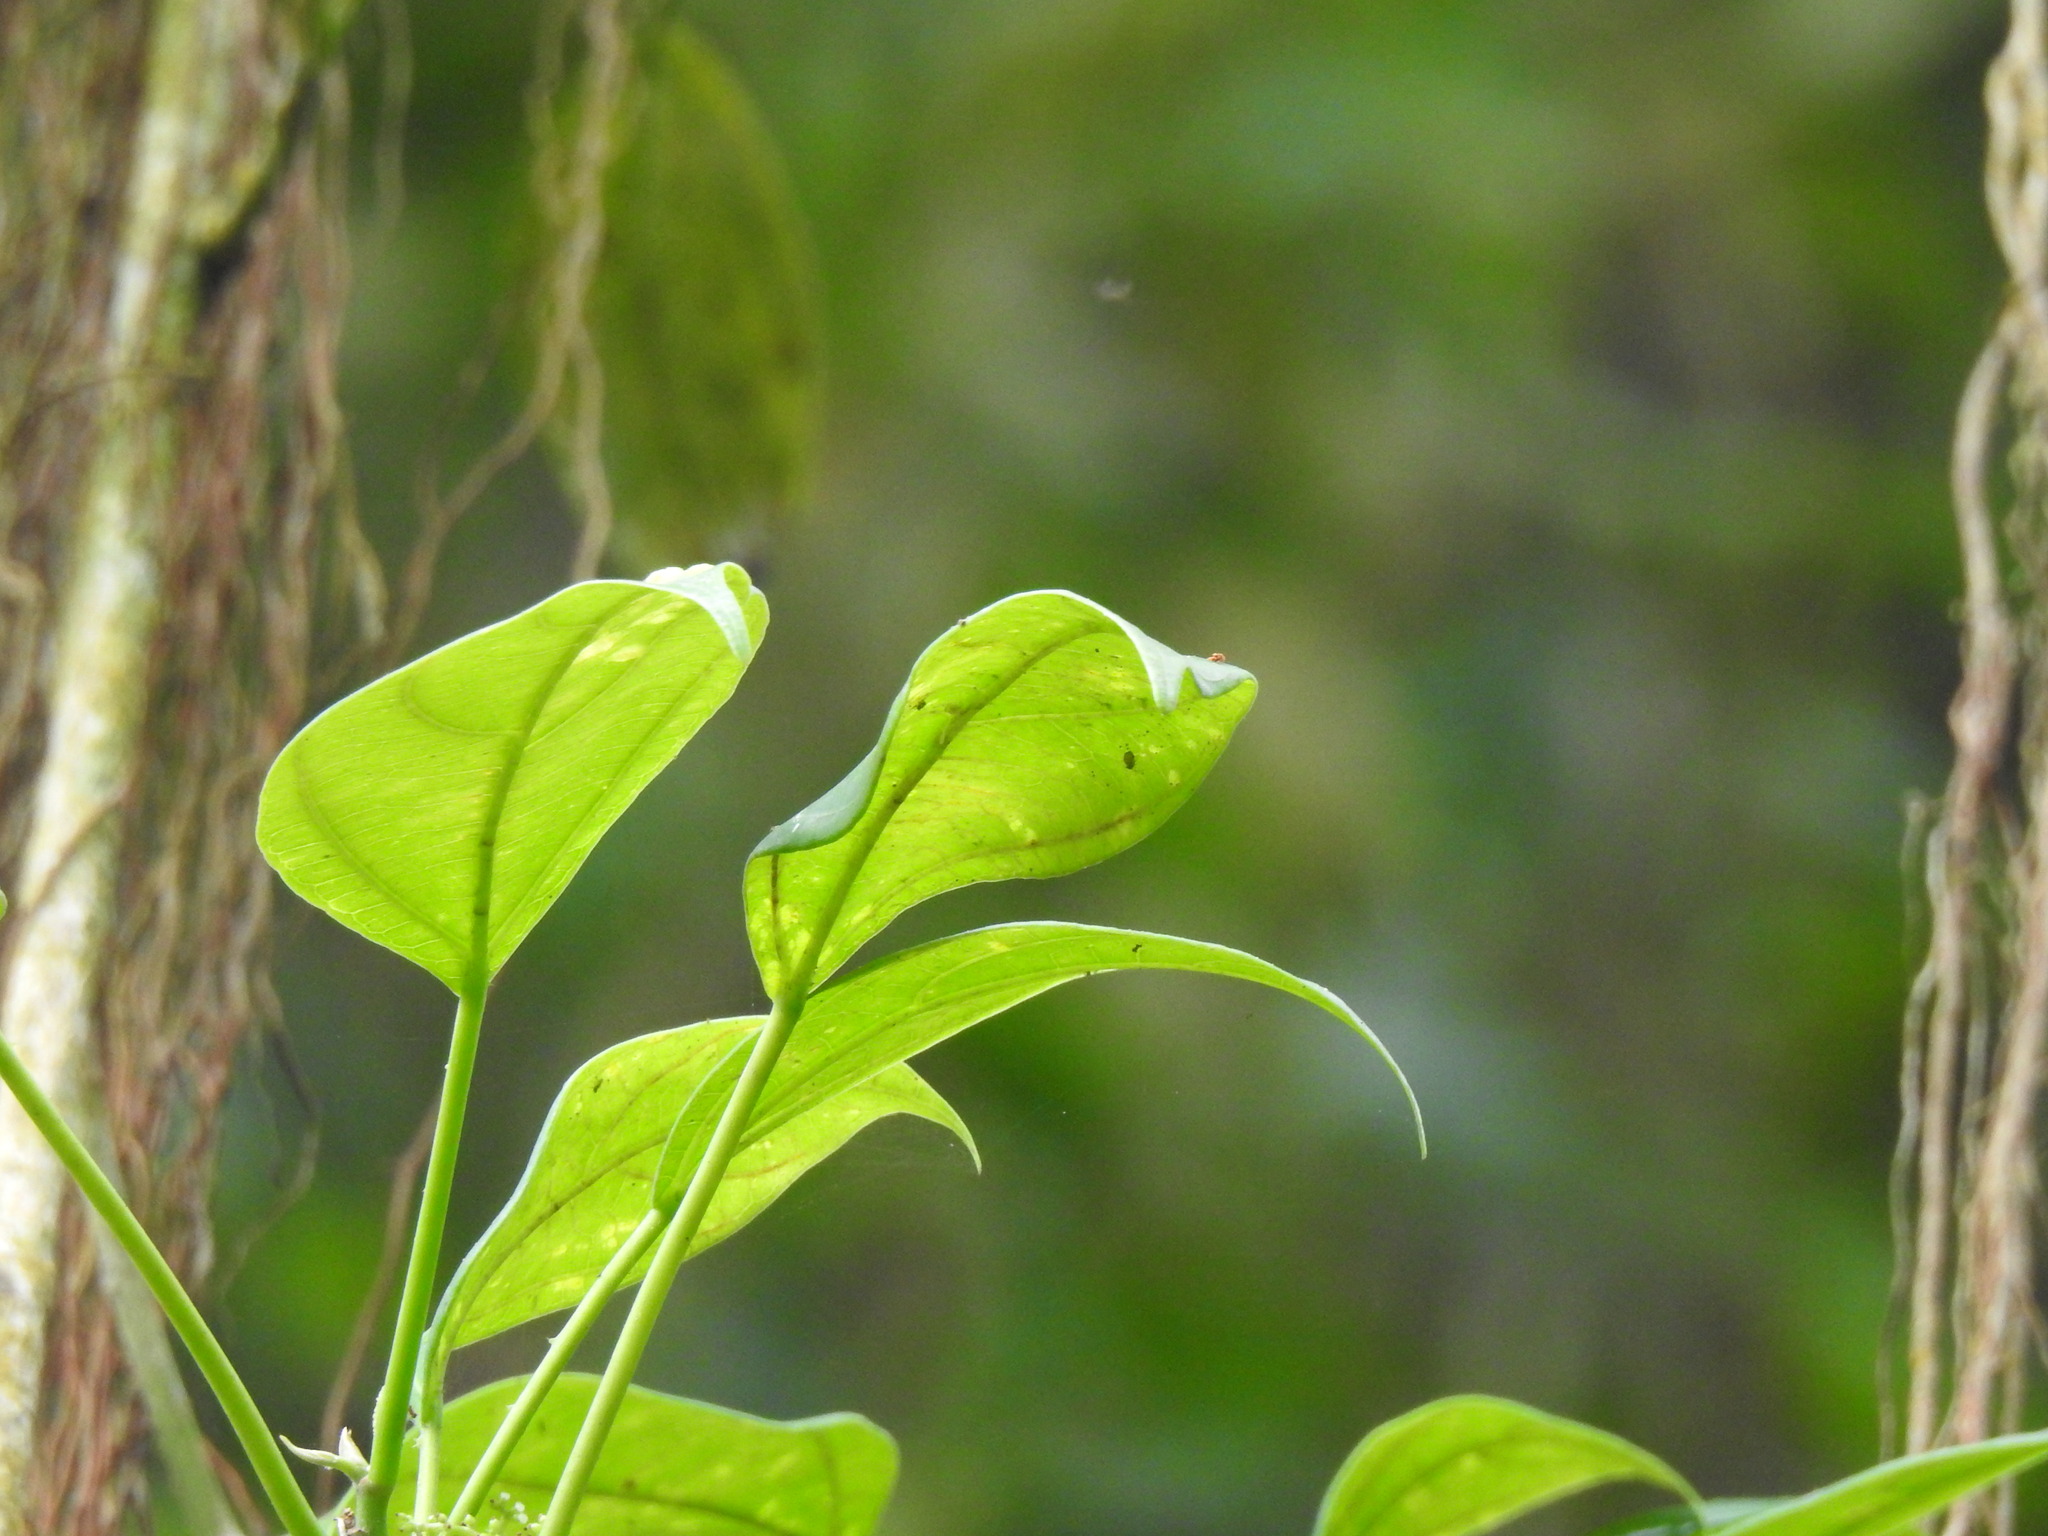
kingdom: Plantae
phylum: Tracheophyta
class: Magnoliopsida
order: Rosales
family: Urticaceae
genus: Scepocarpus
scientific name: Scepocarpus trinervis
